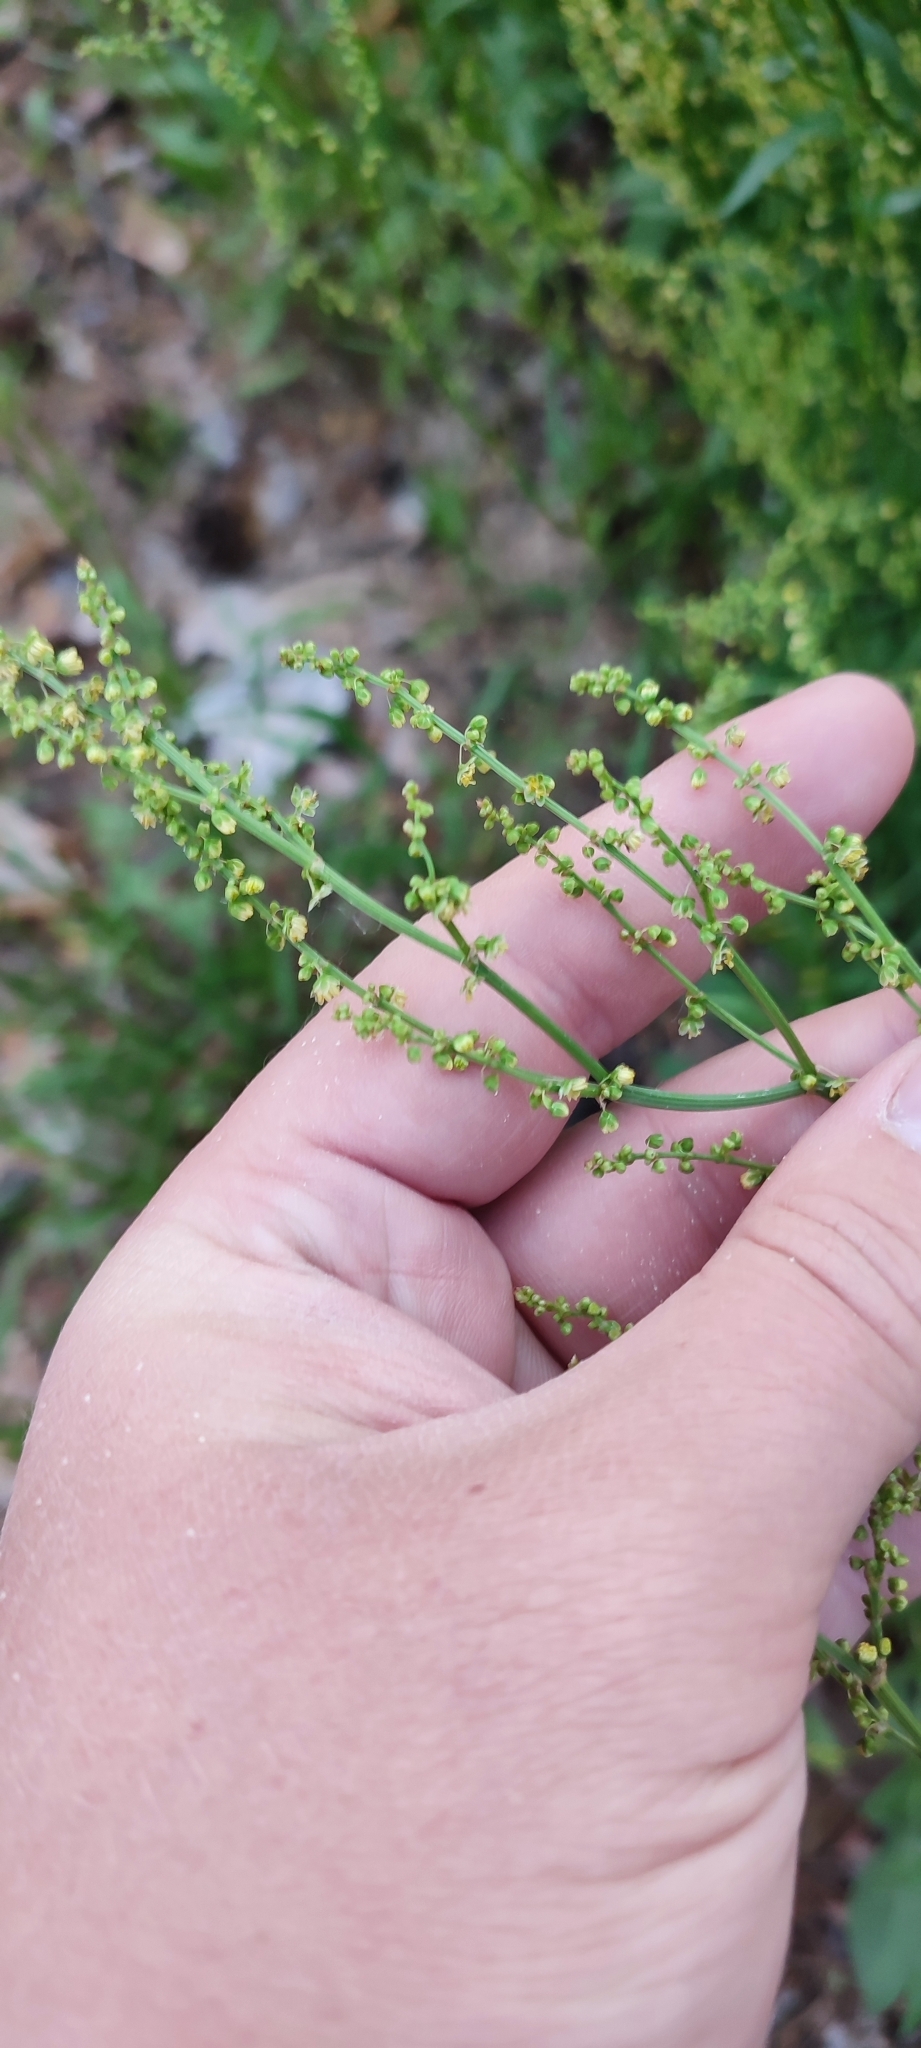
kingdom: Plantae
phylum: Tracheophyta
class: Magnoliopsida
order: Caryophyllales
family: Polygonaceae
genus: Rumex
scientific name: Rumex acetosella
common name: Common sheep sorrel
